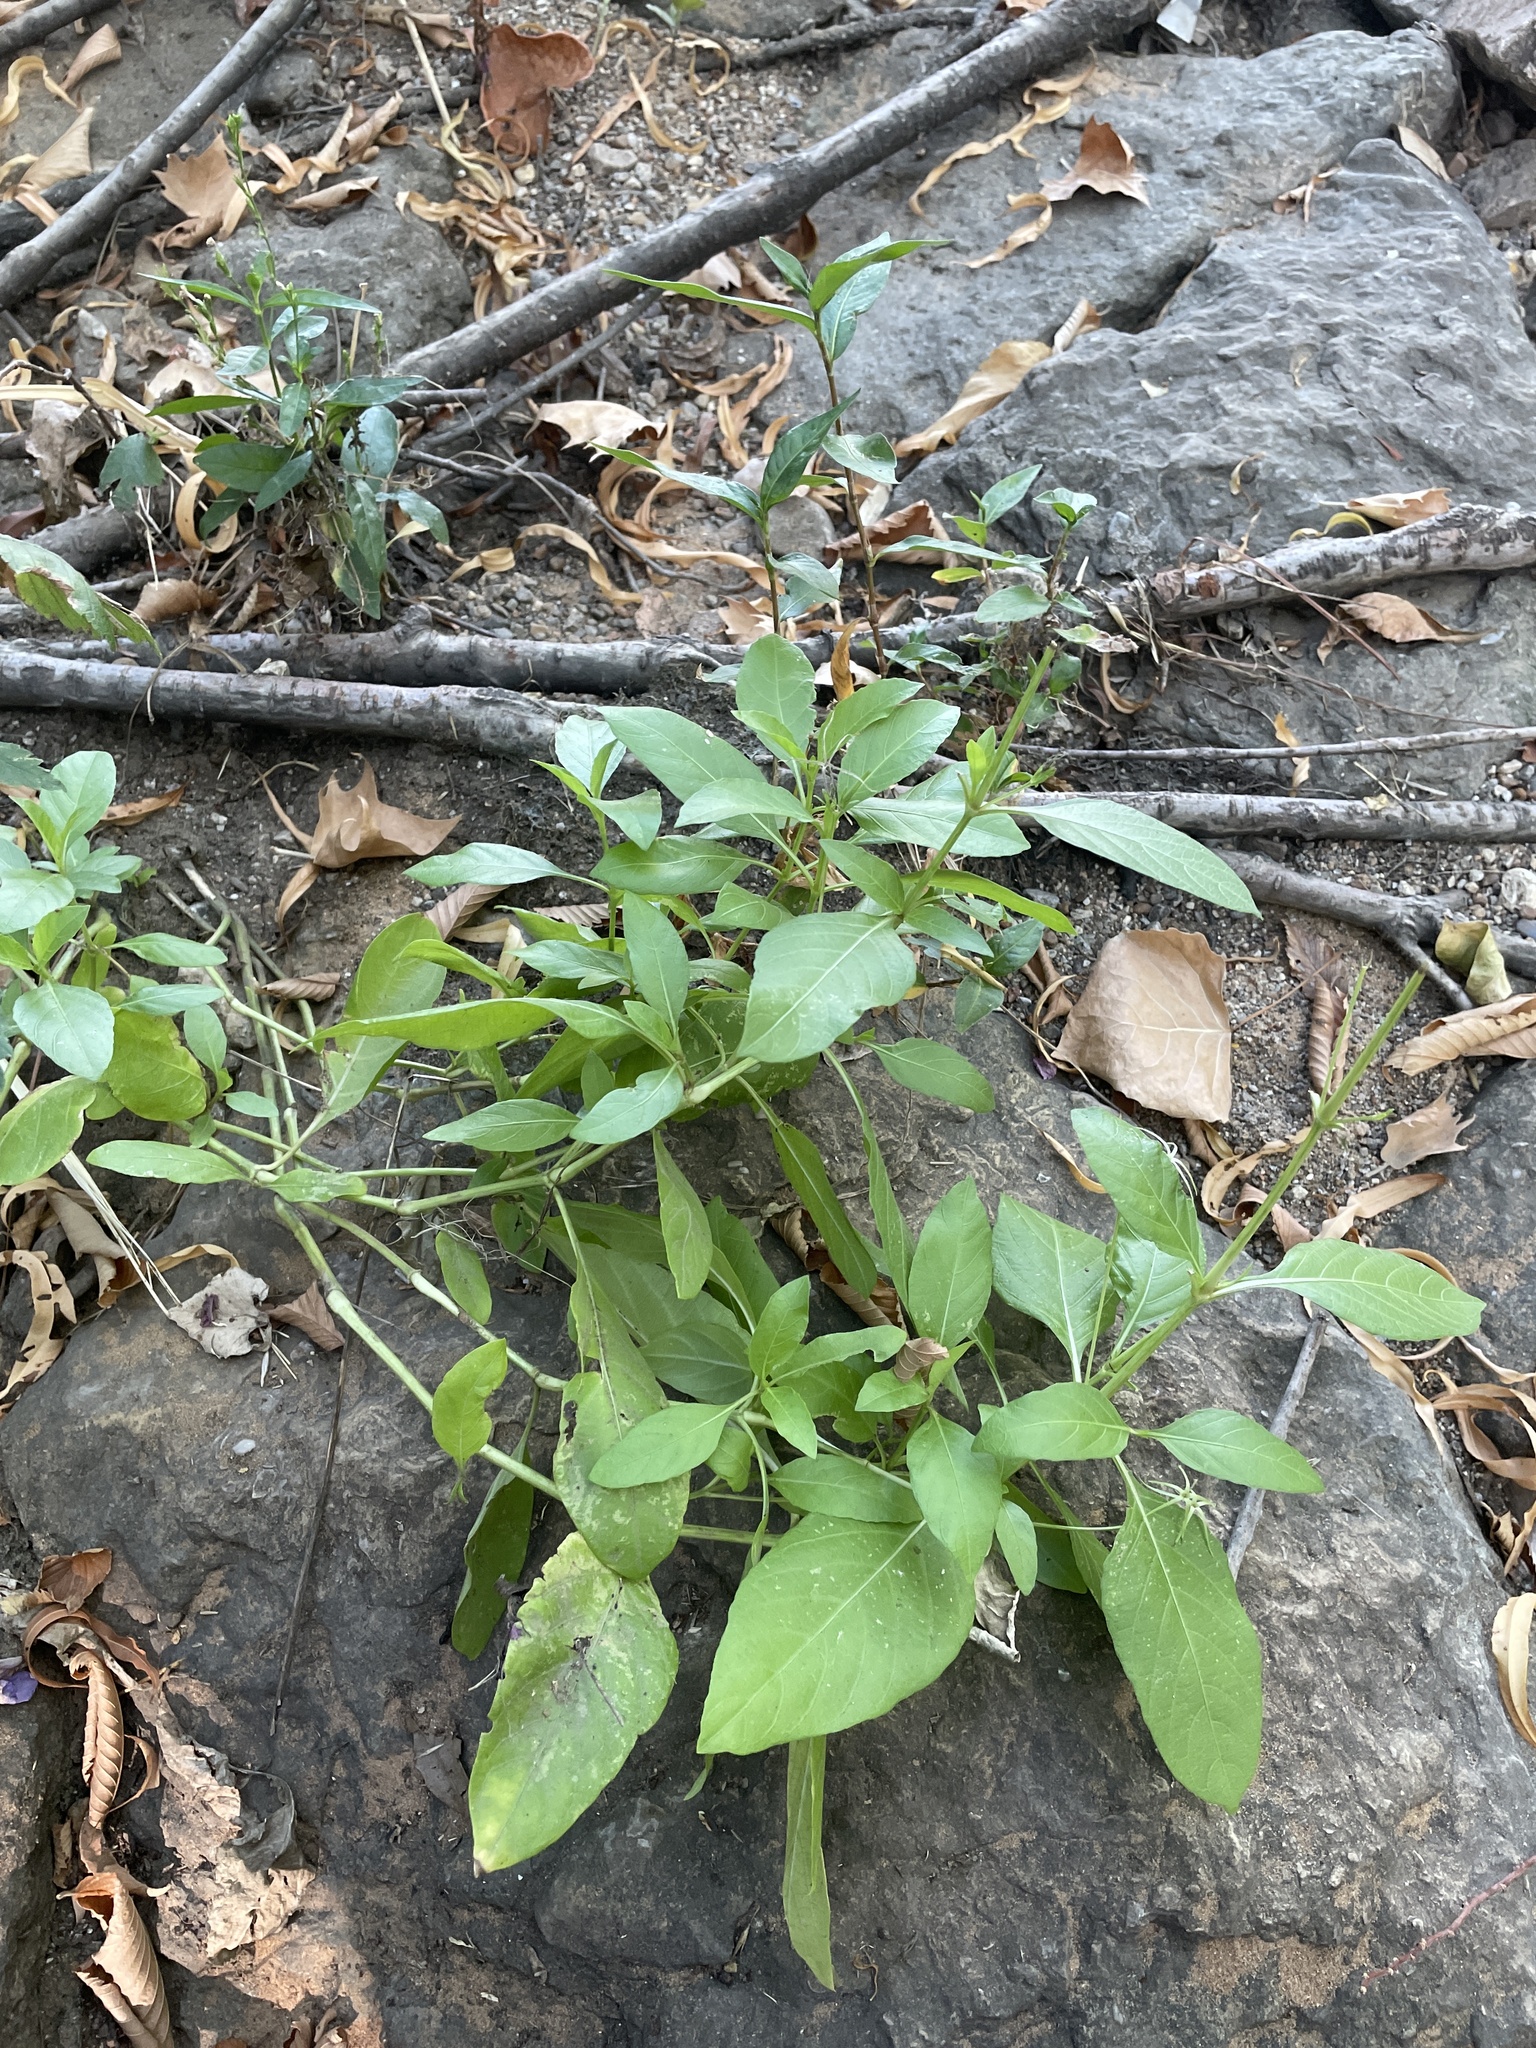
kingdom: Plantae
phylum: Tracheophyta
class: Magnoliopsida
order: Lamiales
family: Acanthaceae
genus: Ruellia
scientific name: Ruellia ciliatiflora
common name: Hairyflower wild petunia
